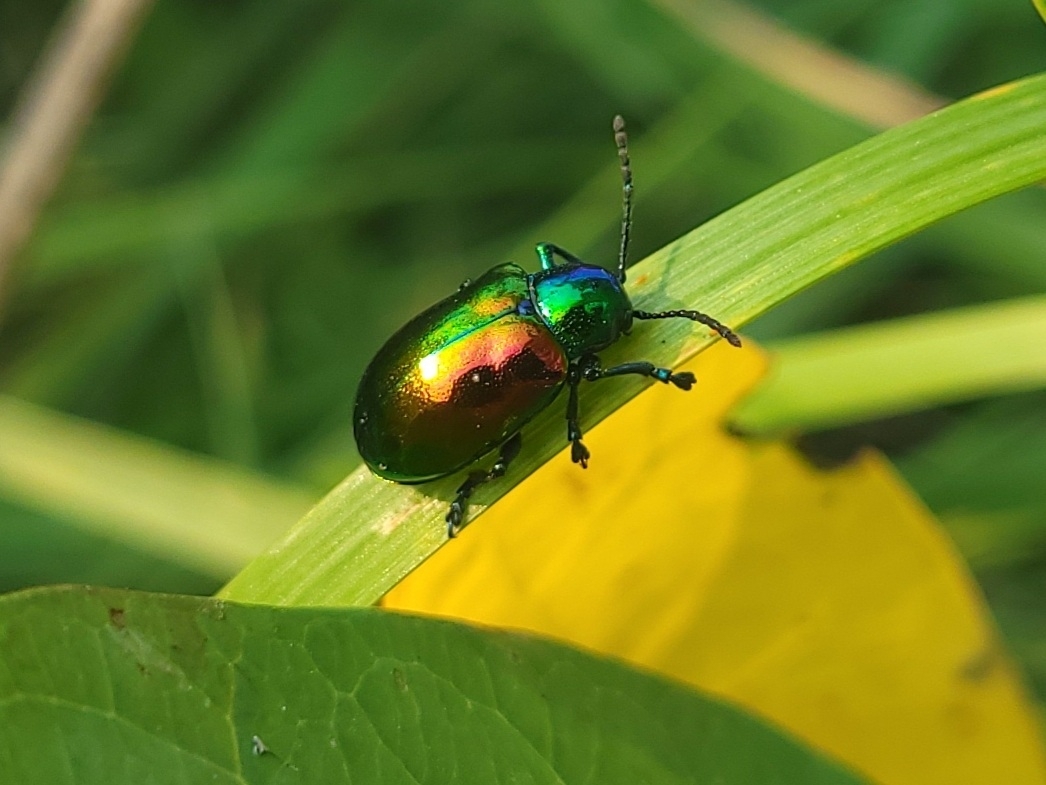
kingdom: Animalia
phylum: Arthropoda
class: Insecta
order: Coleoptera
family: Chrysomelidae
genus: Chrysochus
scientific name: Chrysochus auratus
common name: Dogbane leaf beetle
